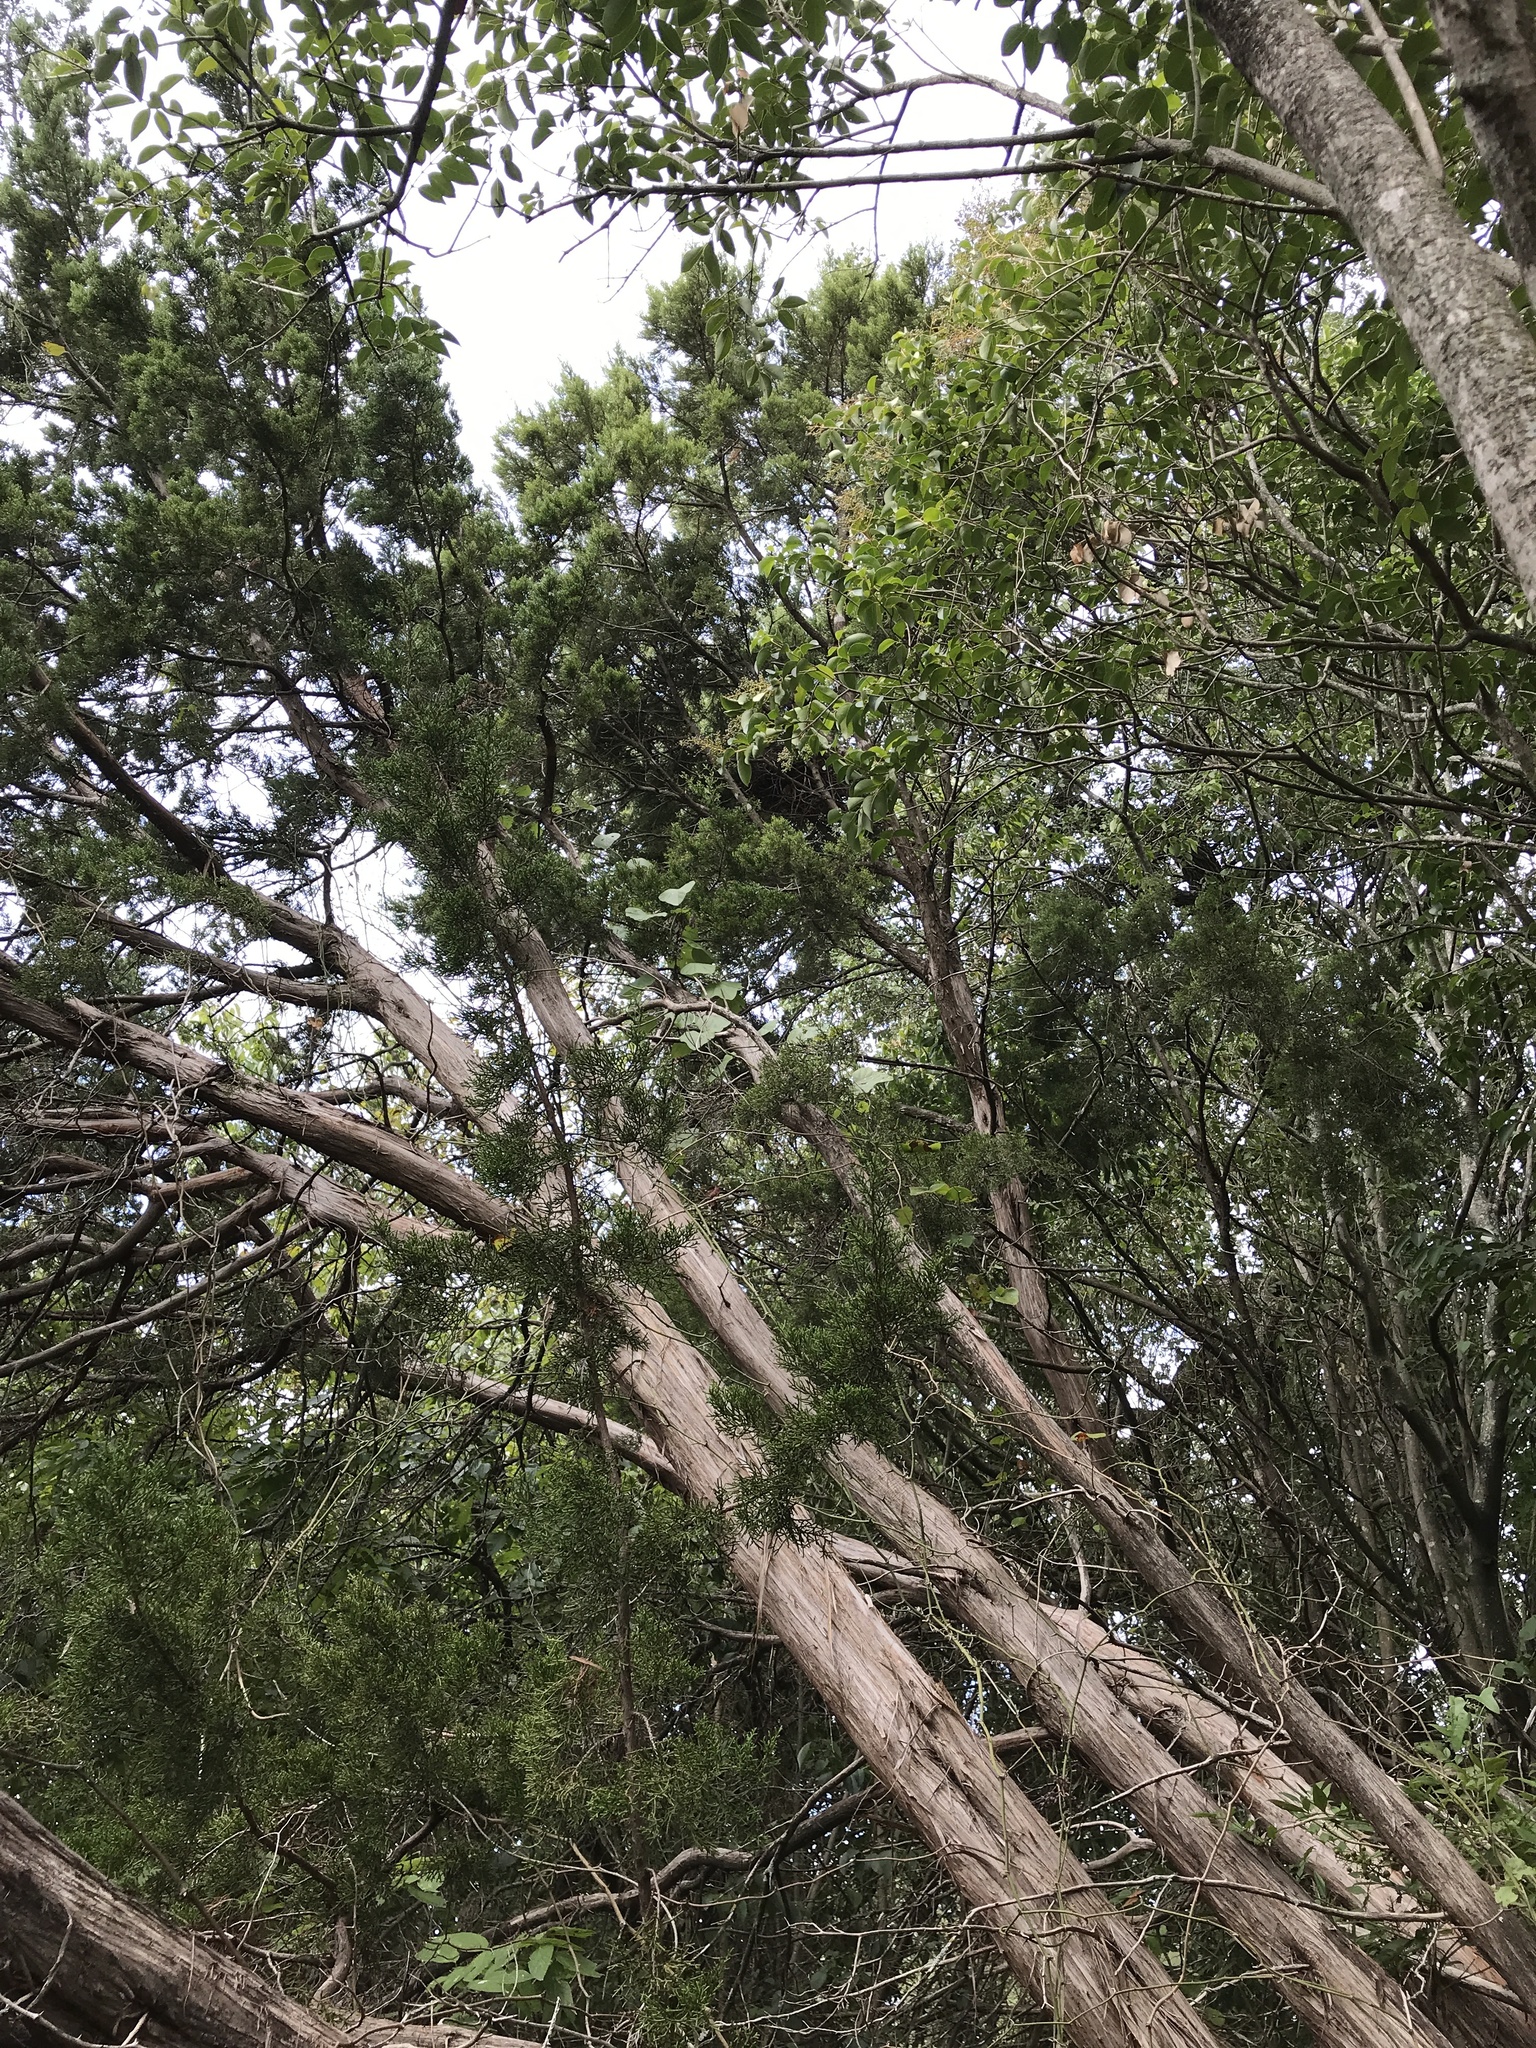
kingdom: Plantae
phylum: Tracheophyta
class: Pinopsida
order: Pinales
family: Cupressaceae
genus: Juniperus
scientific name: Juniperus ashei
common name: Mexican juniper
